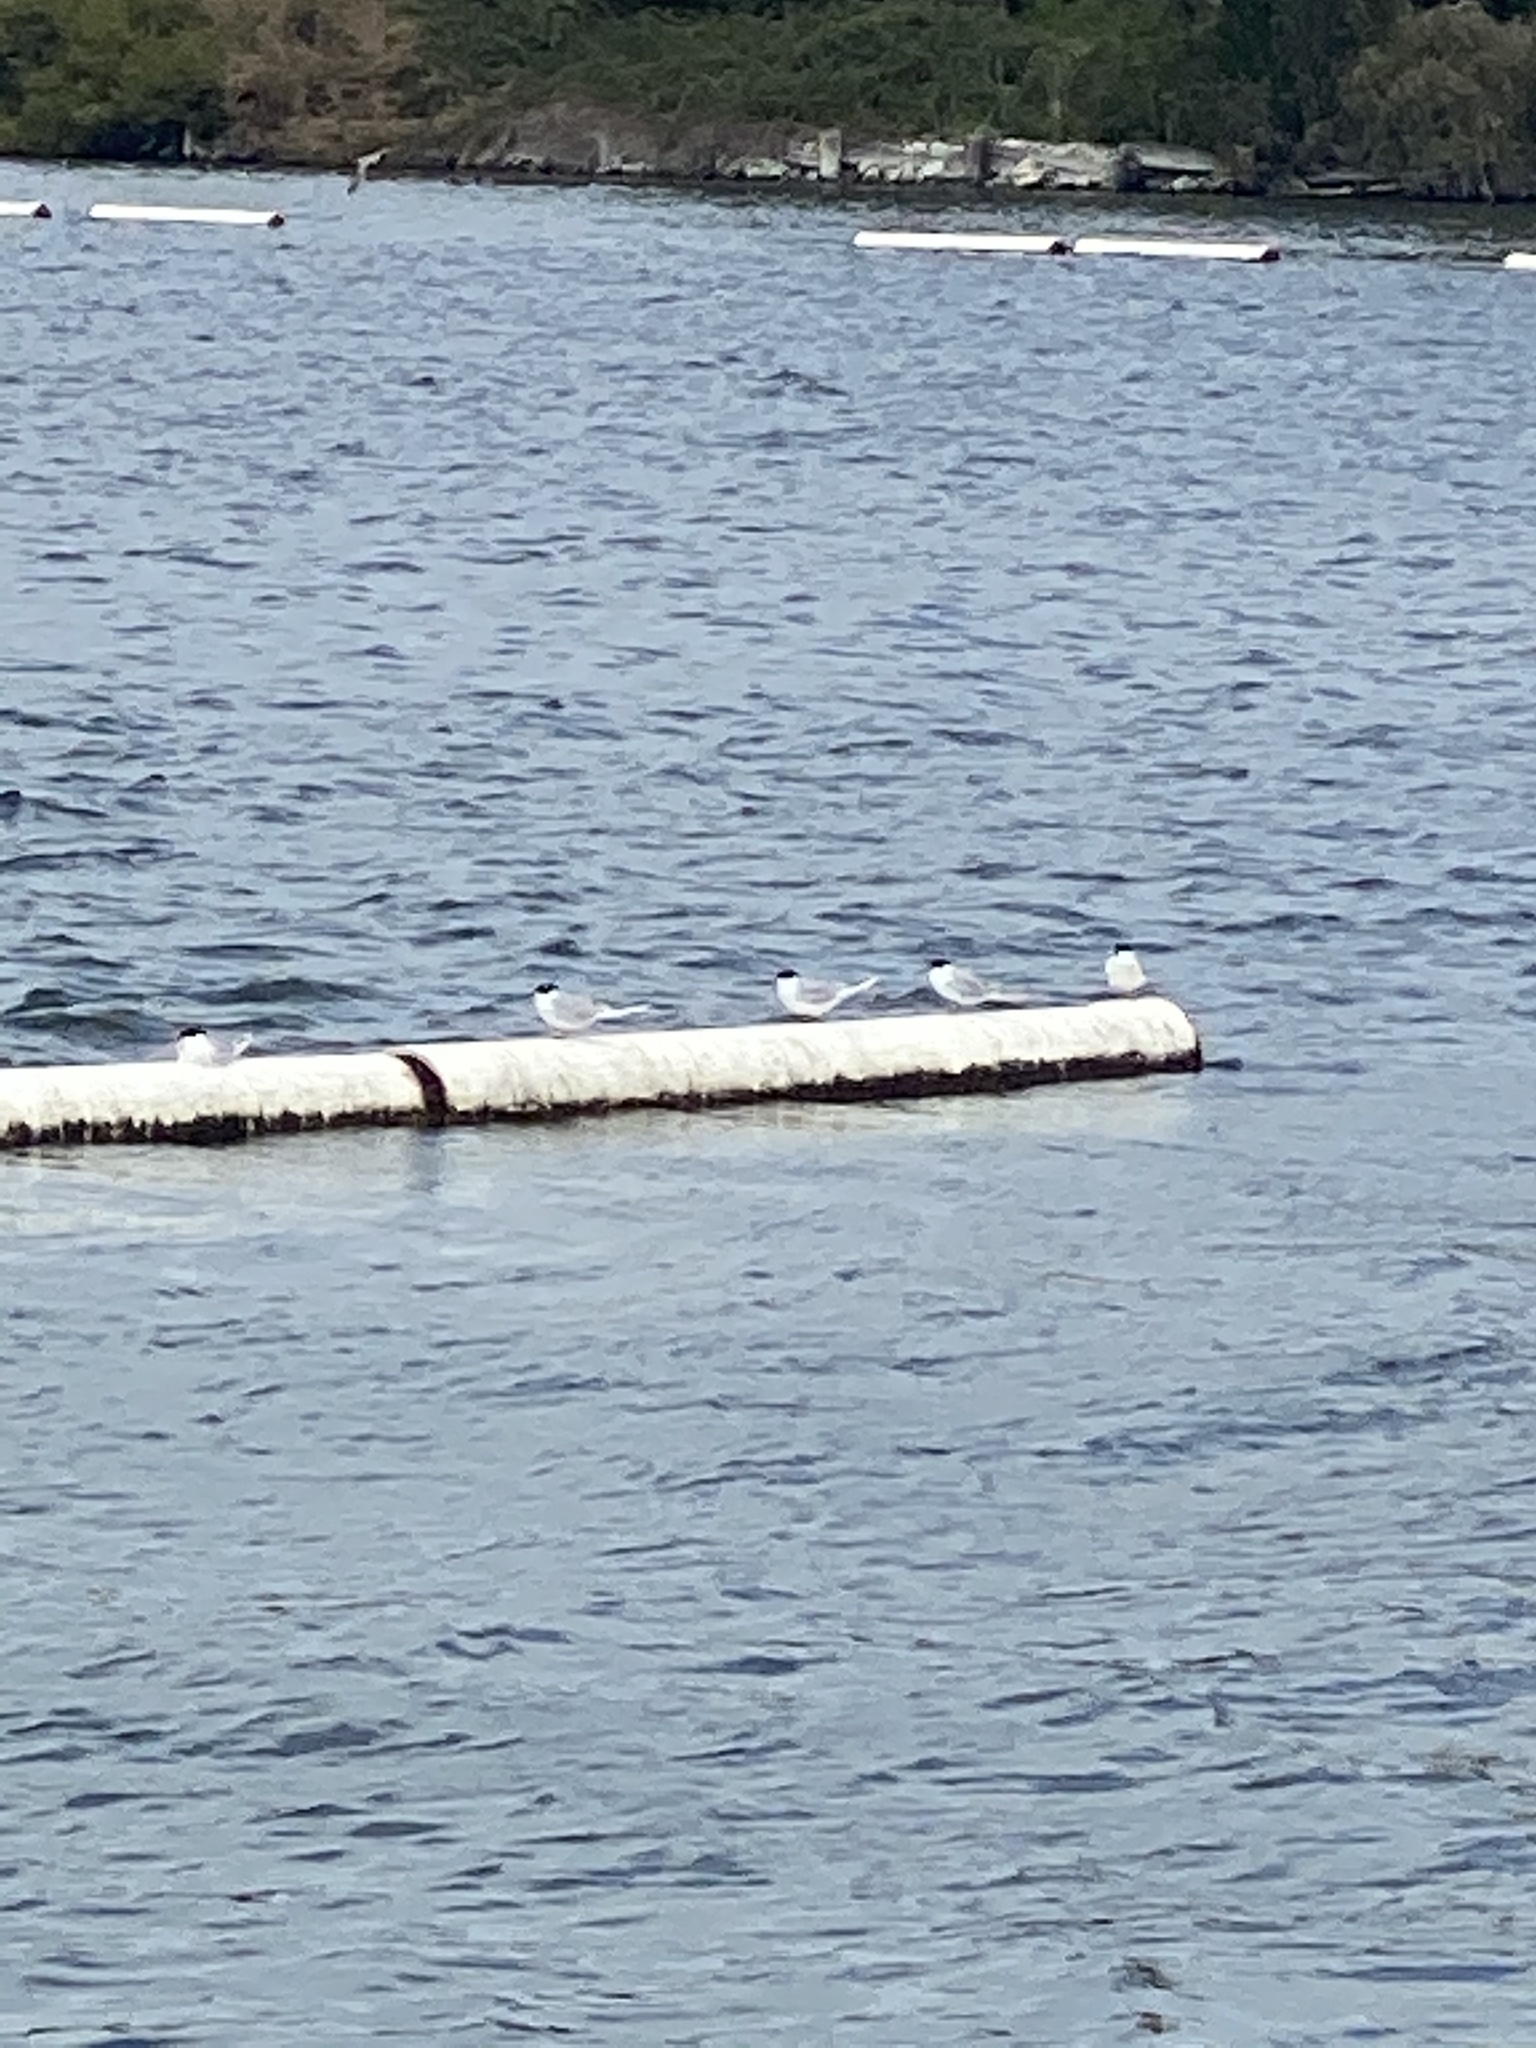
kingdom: Animalia
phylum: Chordata
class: Aves
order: Charadriiformes
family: Laridae
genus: Sterna
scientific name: Sterna forsteri
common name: Forster's tern
